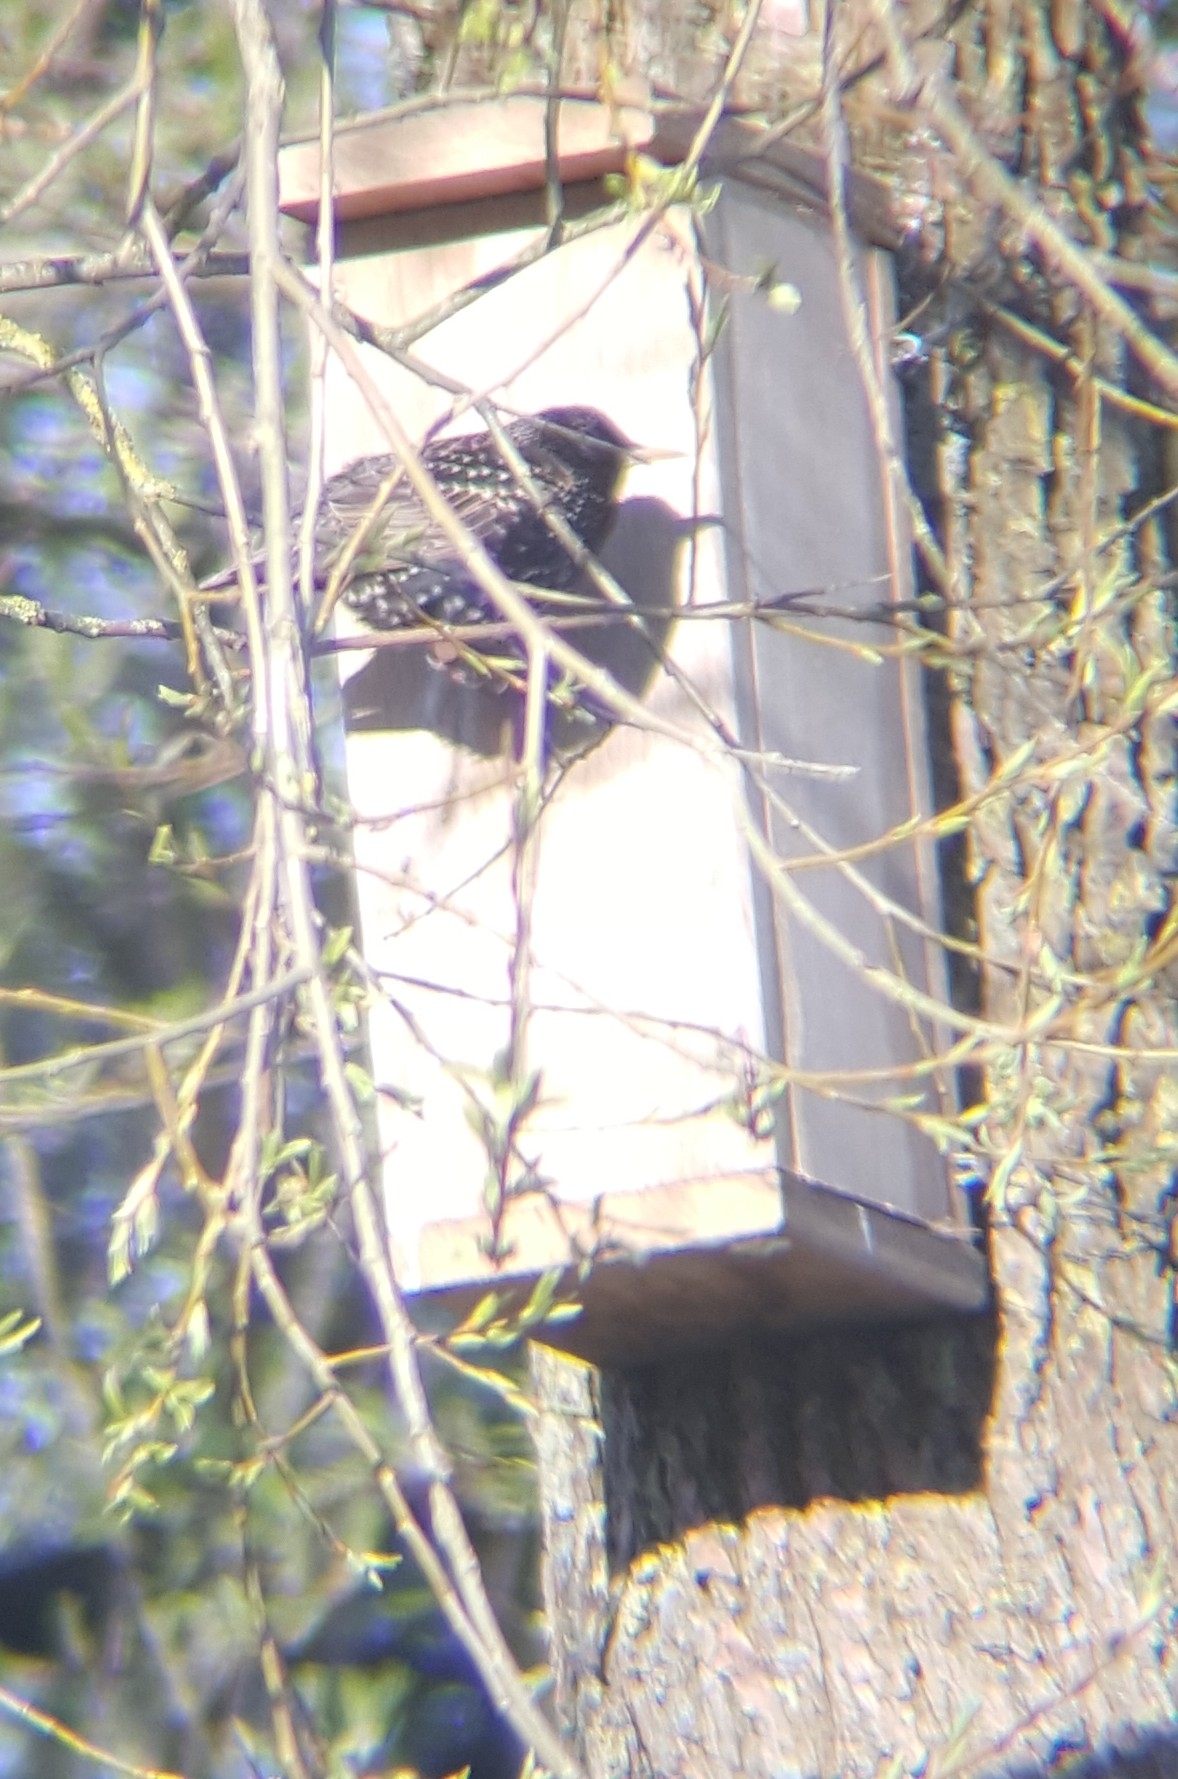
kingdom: Animalia
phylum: Chordata
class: Aves
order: Passeriformes
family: Sturnidae
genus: Sturnus
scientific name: Sturnus vulgaris
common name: Common starling
